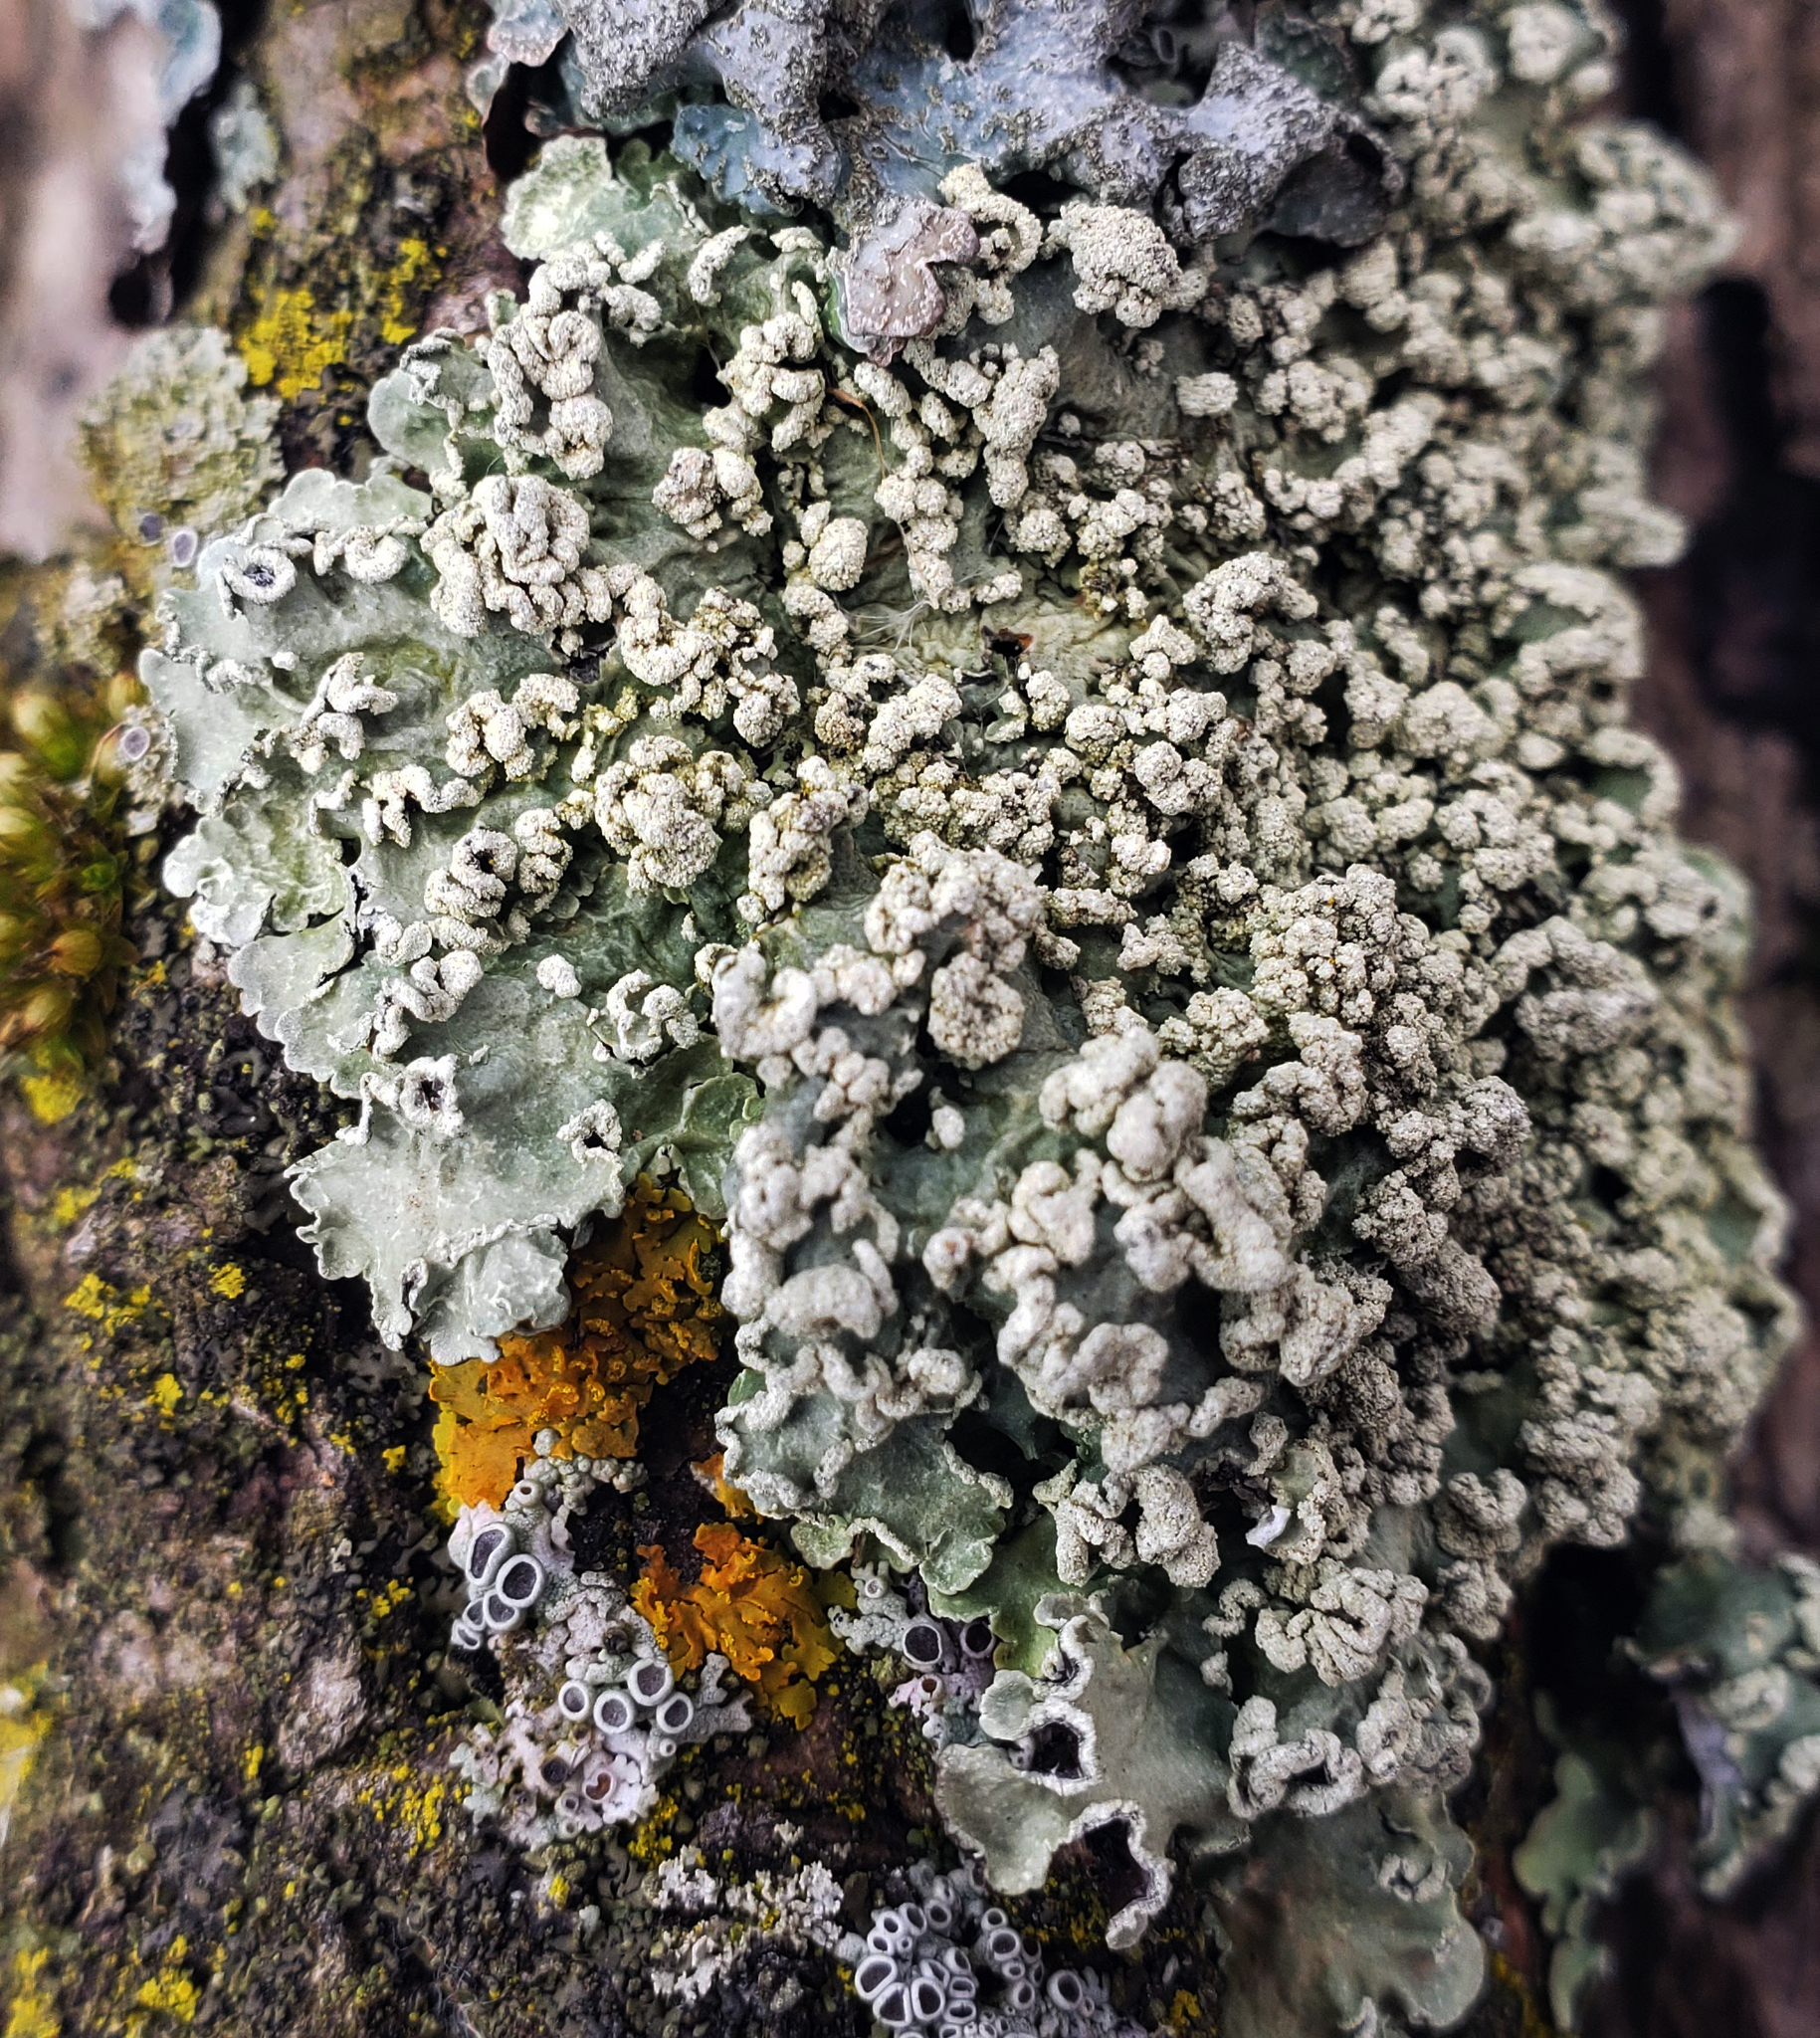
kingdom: Fungi
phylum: Ascomycota
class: Lecanoromycetes
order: Lecanorales
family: Parmeliaceae
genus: Flavopunctelia
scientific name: Flavopunctelia soredica
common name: Powder-edged speckled greenshield
